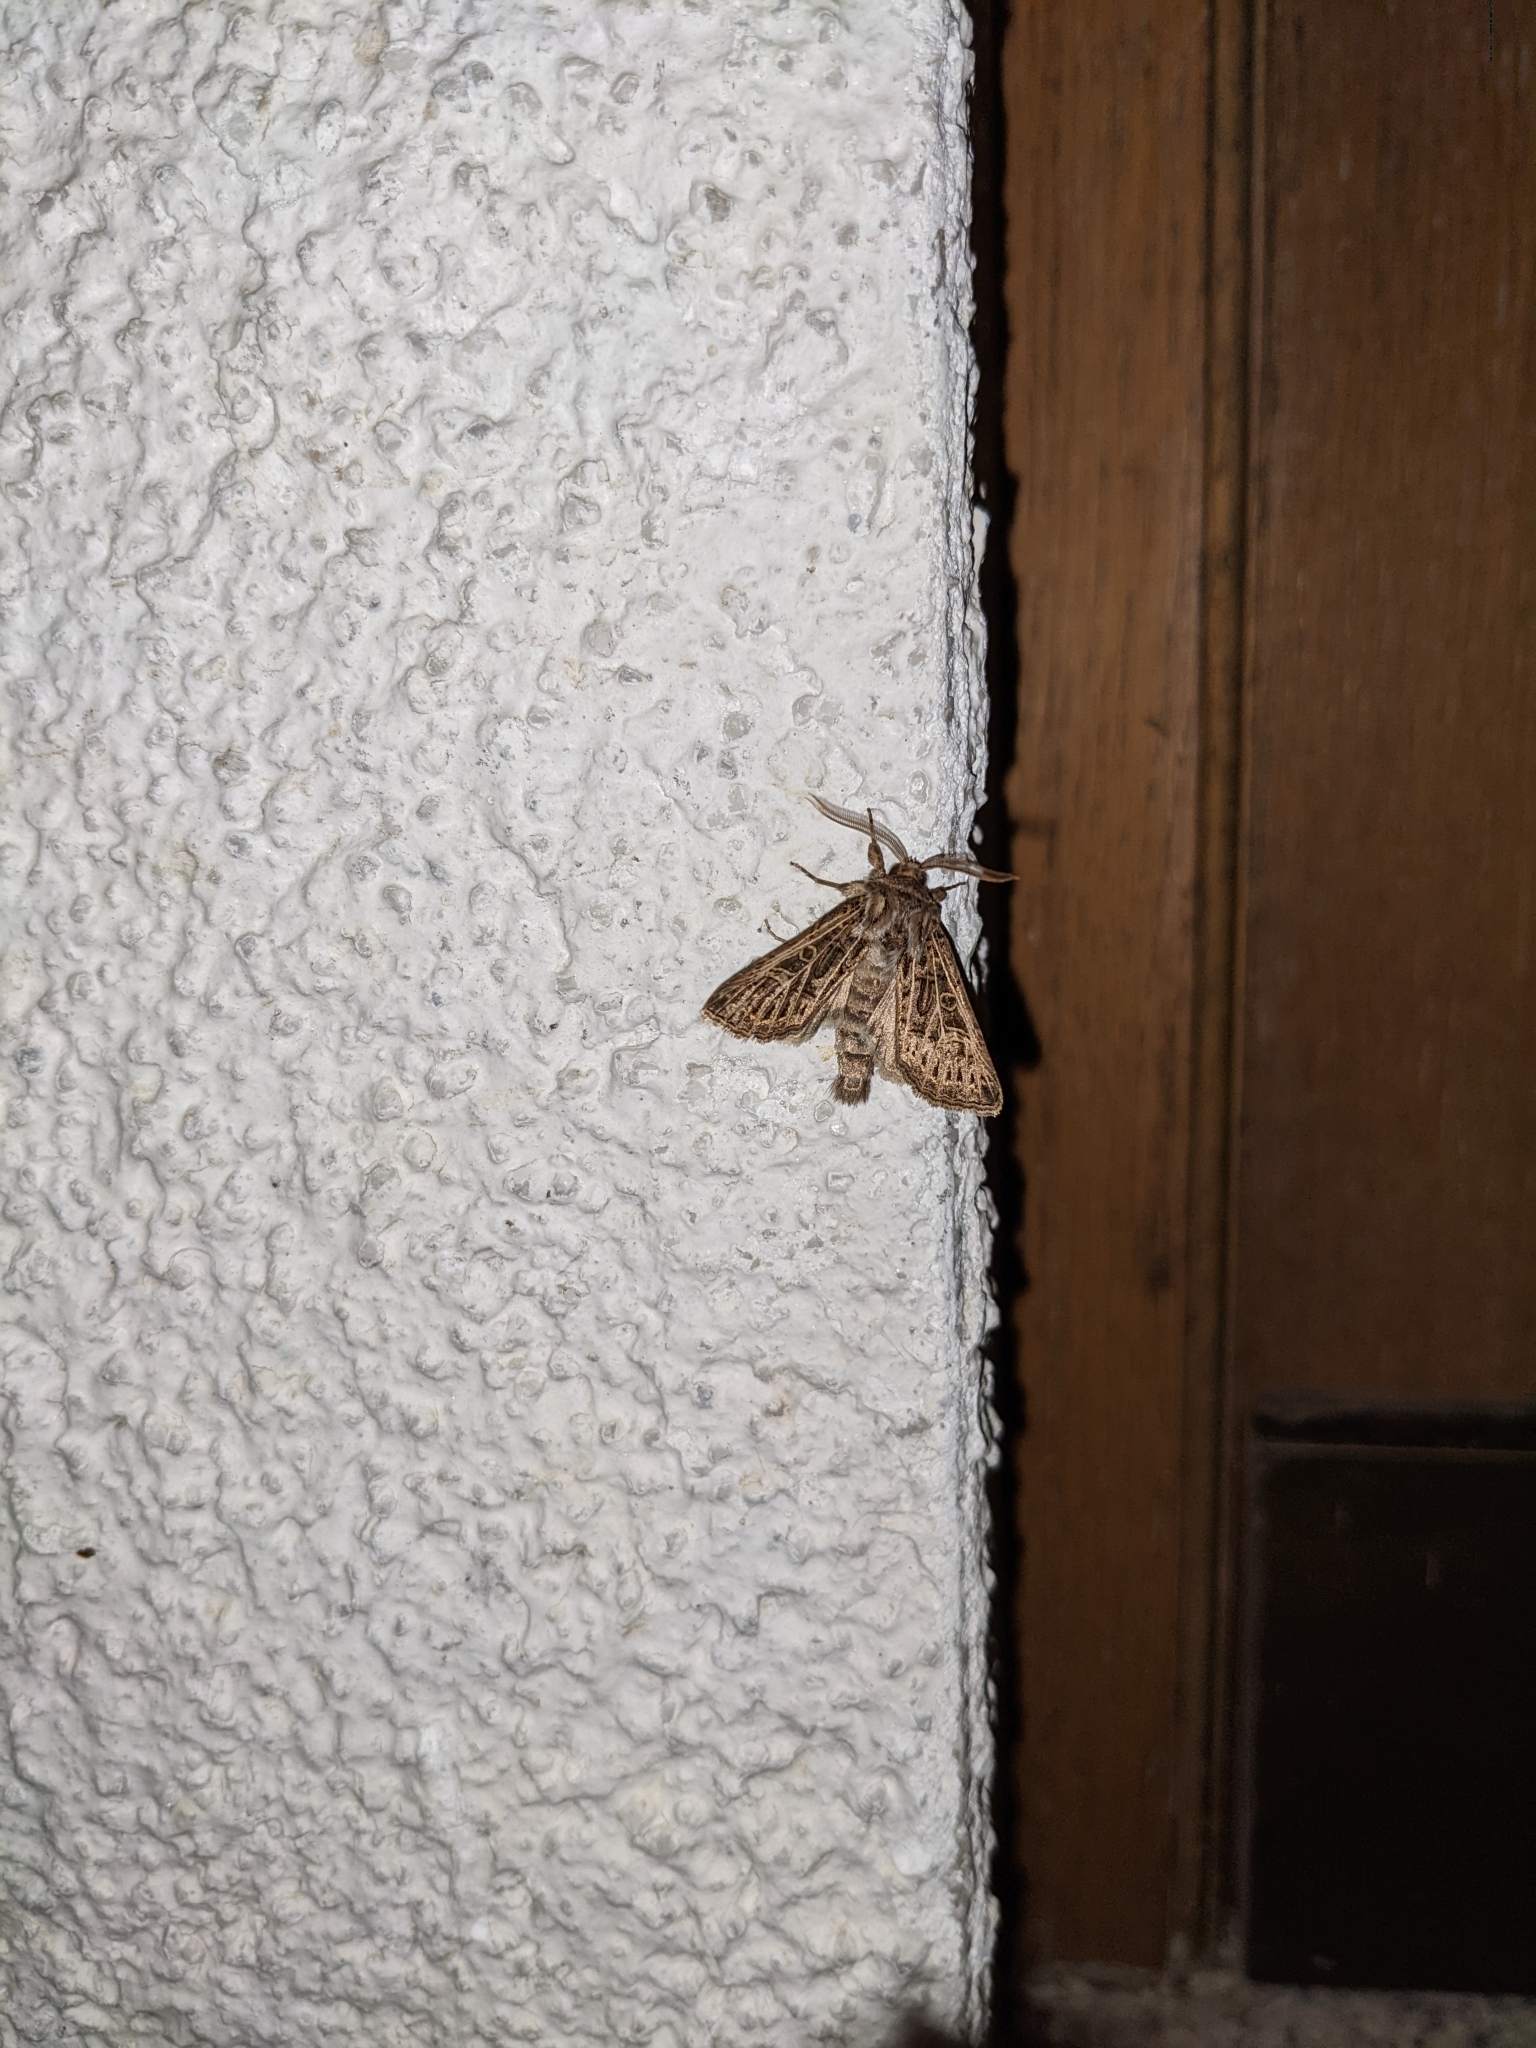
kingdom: Animalia
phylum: Arthropoda
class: Insecta
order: Lepidoptera
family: Noctuidae
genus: Tholera
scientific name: Tholera decimalis
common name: Feathered gothic
